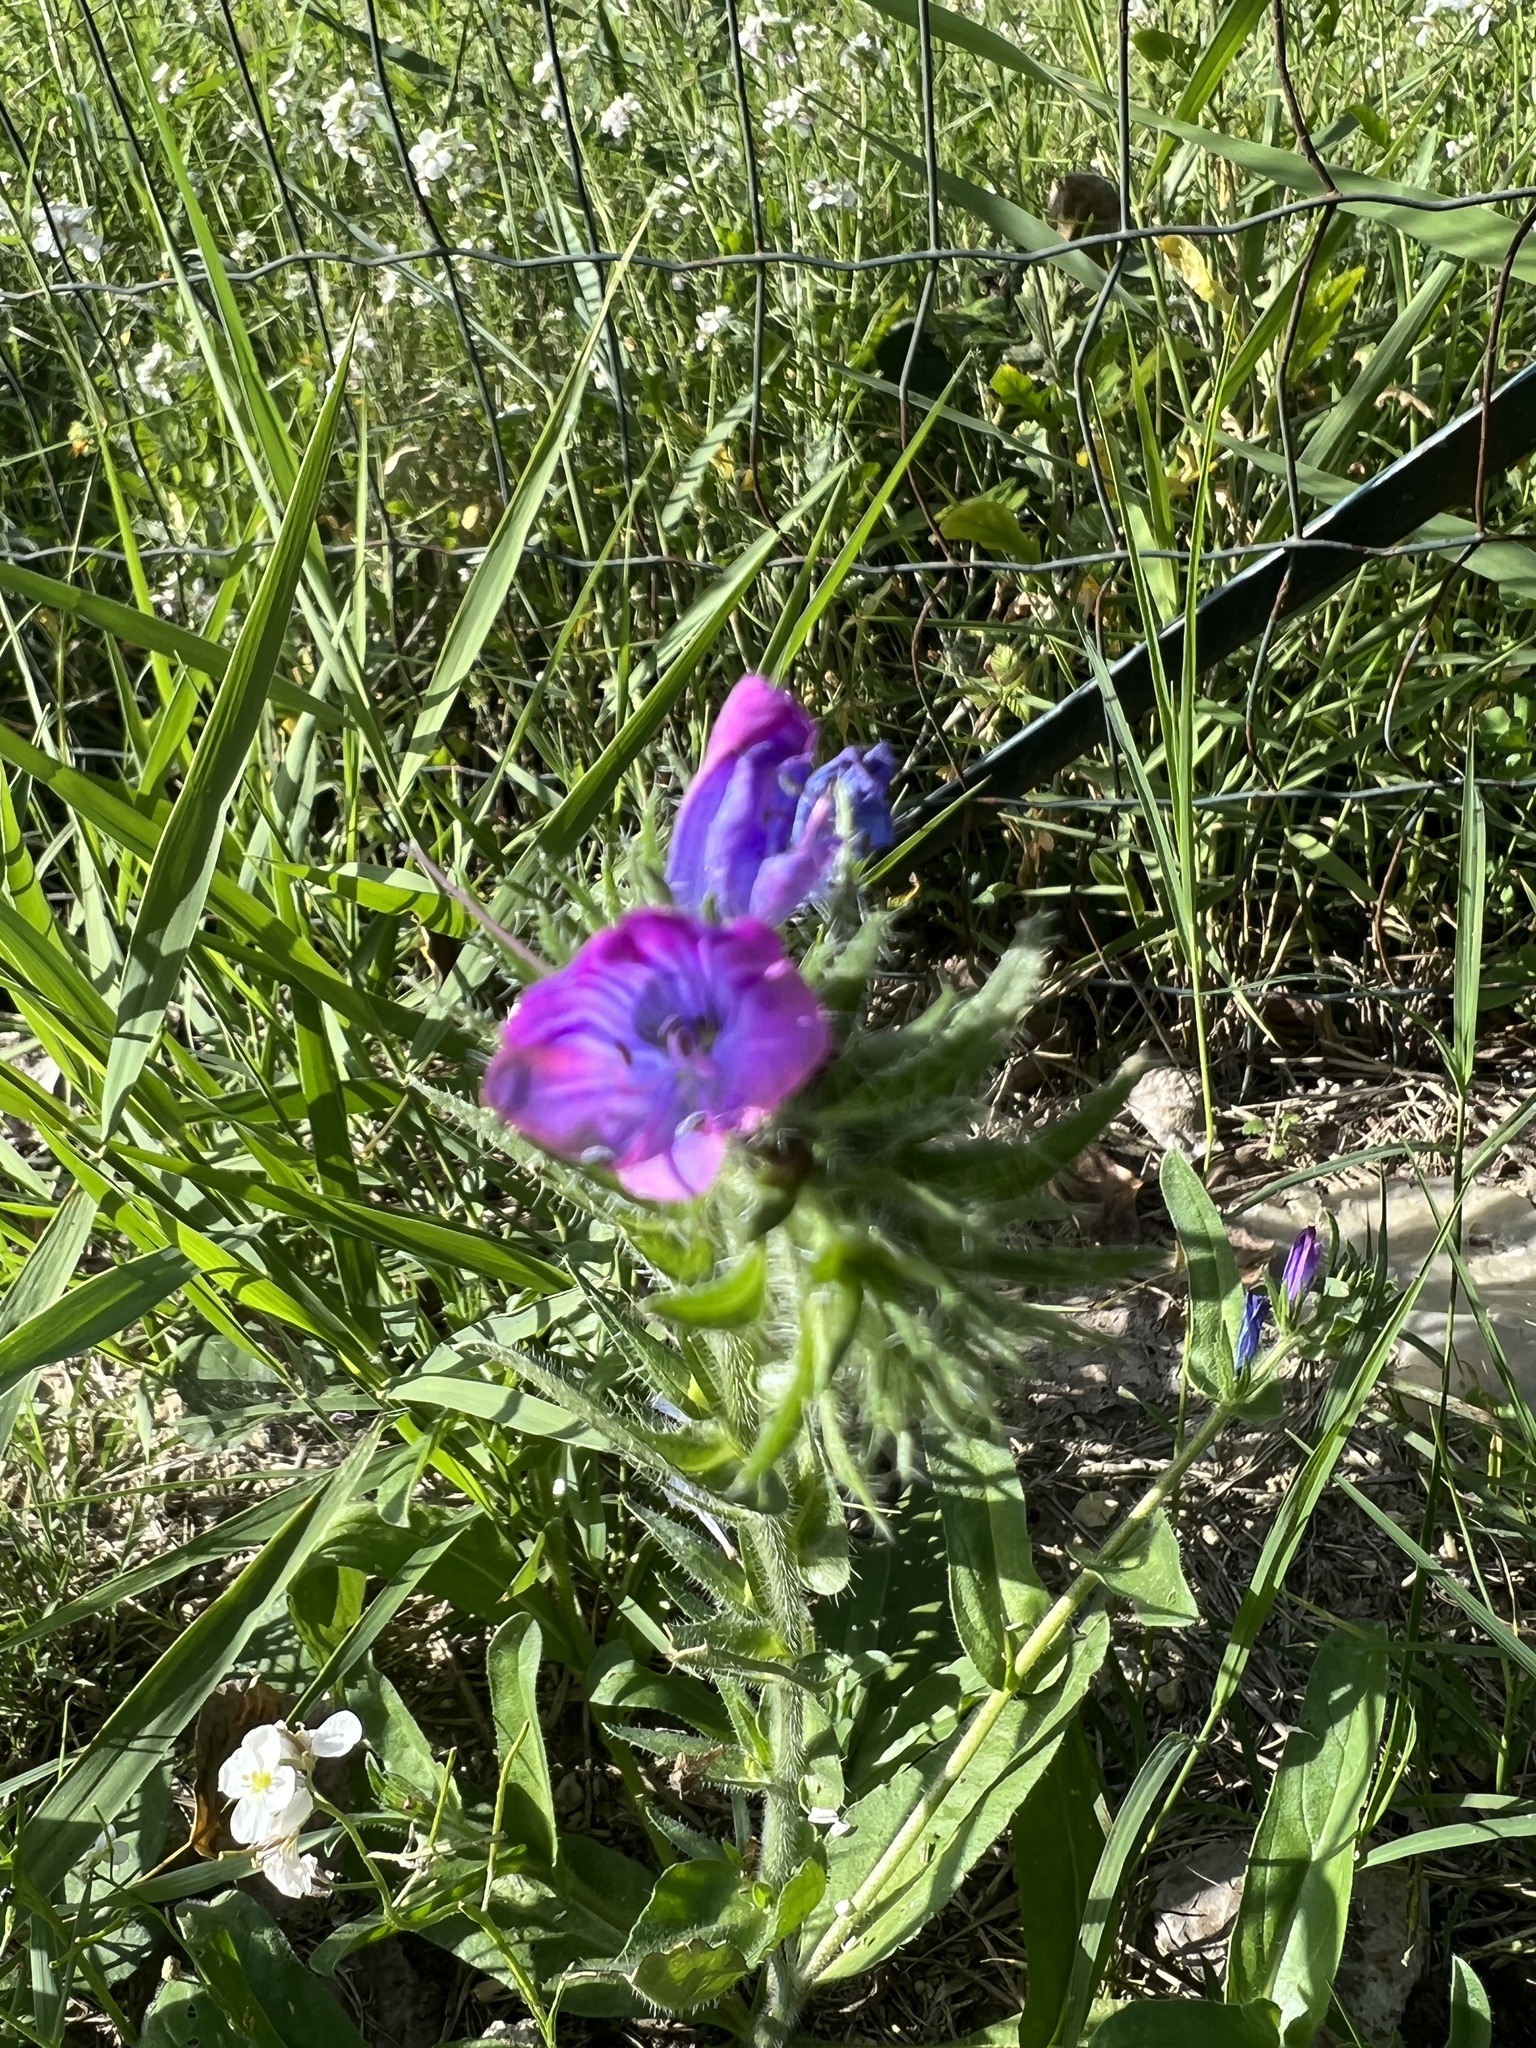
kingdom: Plantae
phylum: Tracheophyta
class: Magnoliopsida
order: Boraginales
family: Boraginaceae
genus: Echium
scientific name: Echium plantagineum
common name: Purple viper's-bugloss
